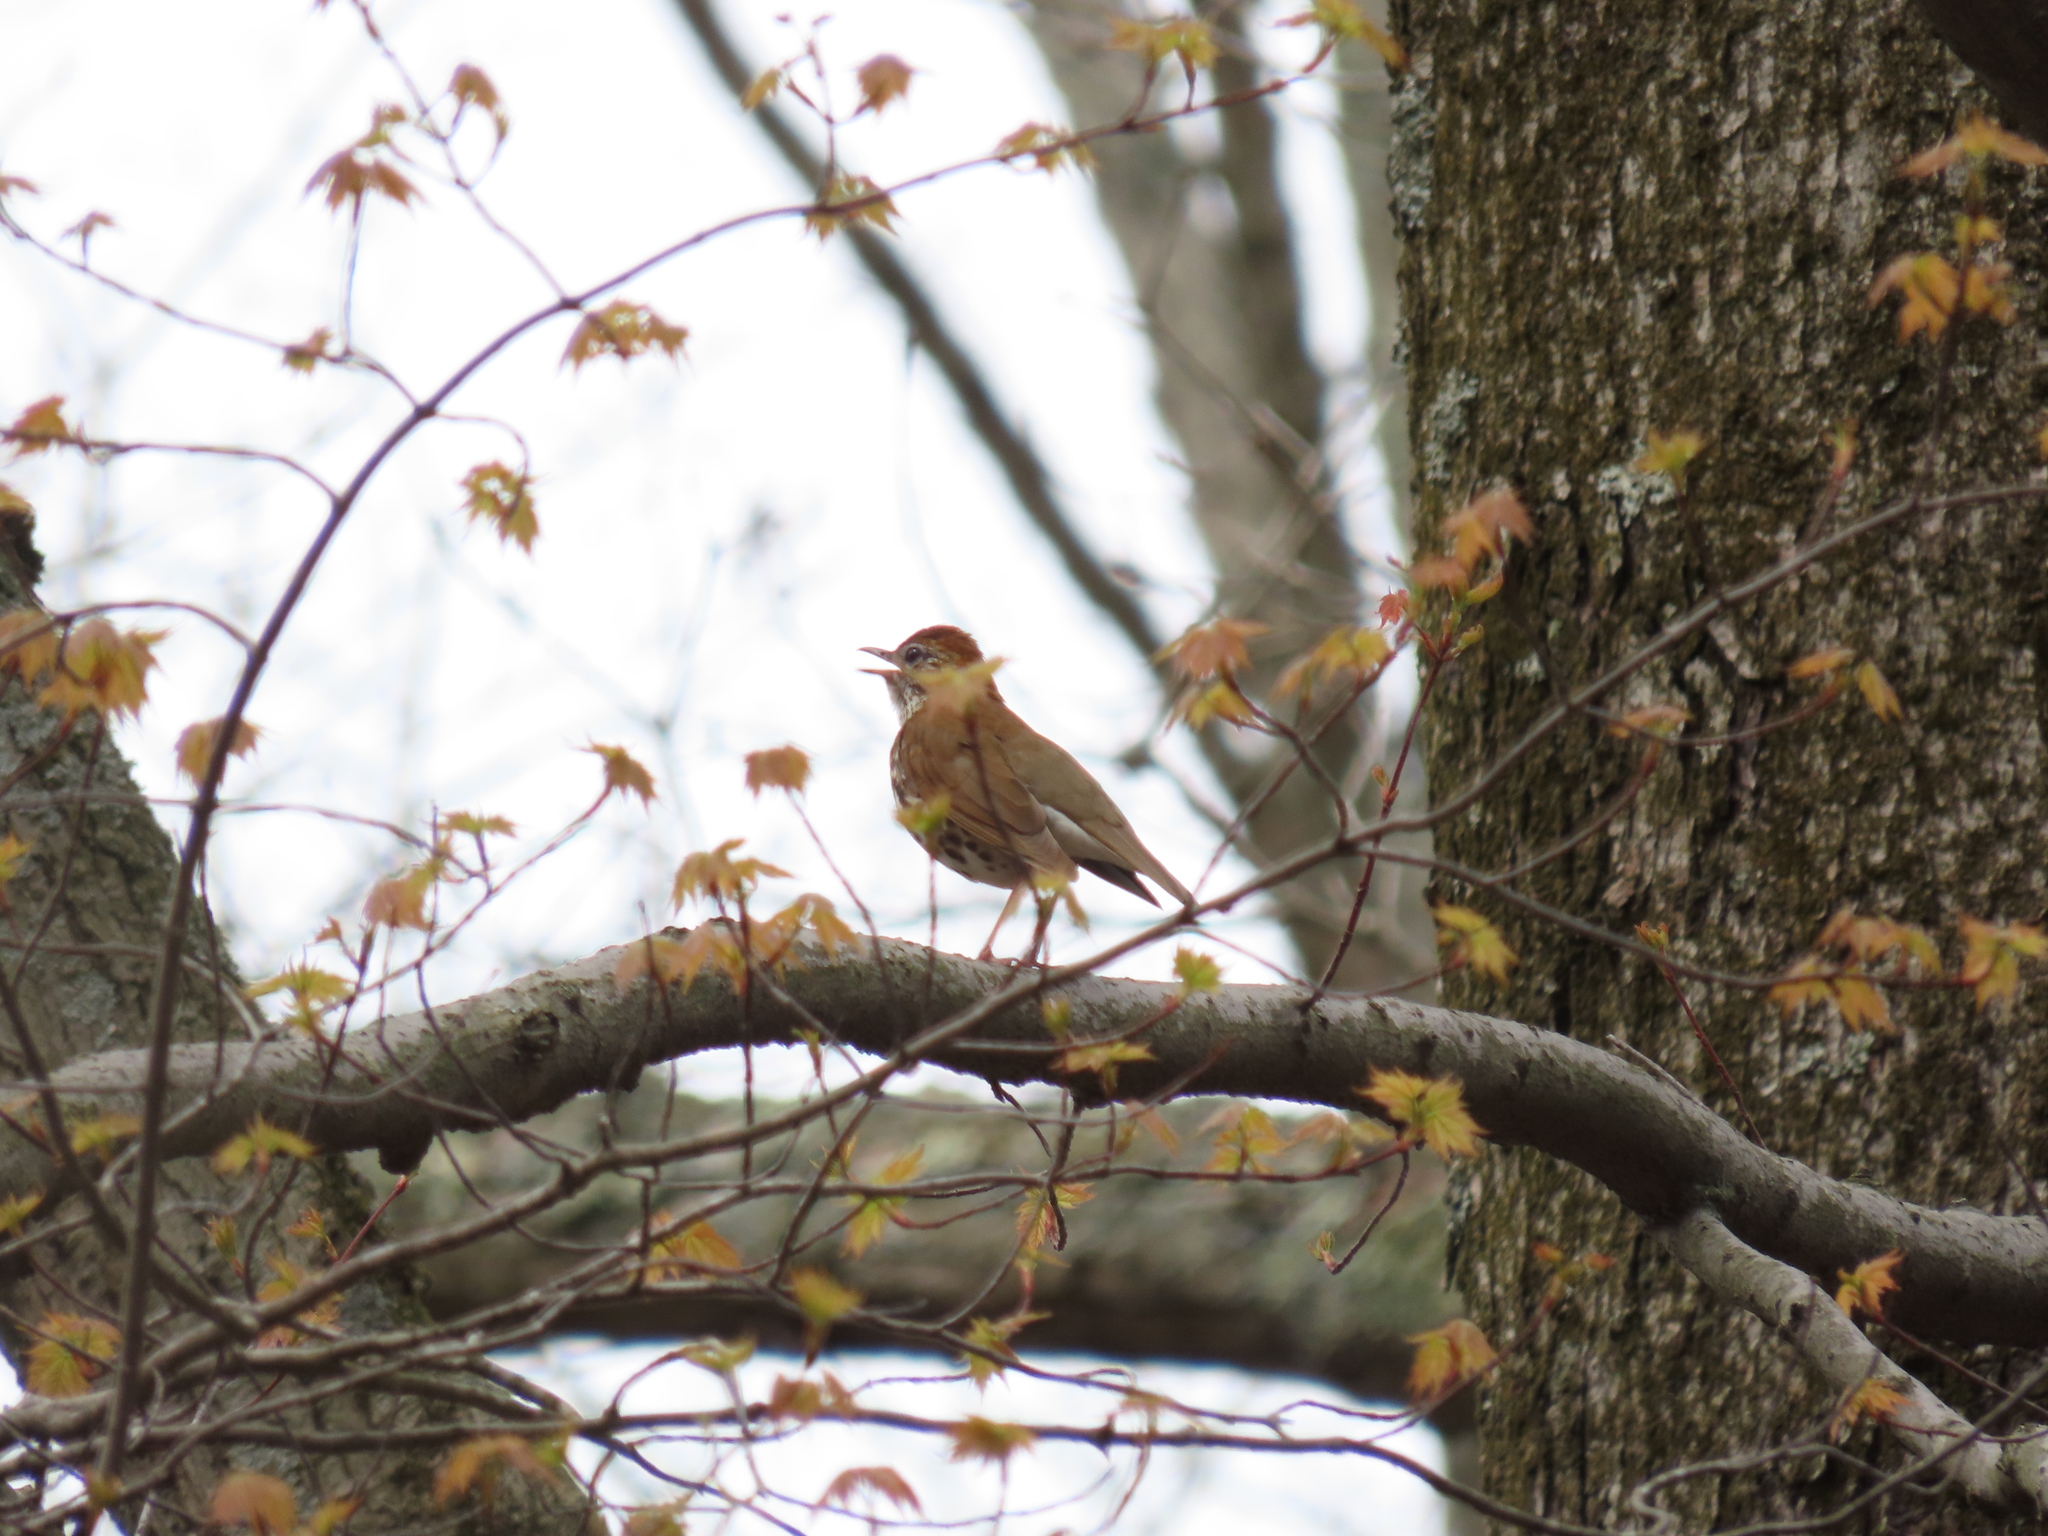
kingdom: Animalia
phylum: Chordata
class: Aves
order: Passeriformes
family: Turdidae
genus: Hylocichla
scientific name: Hylocichla mustelina
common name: Wood thrush
